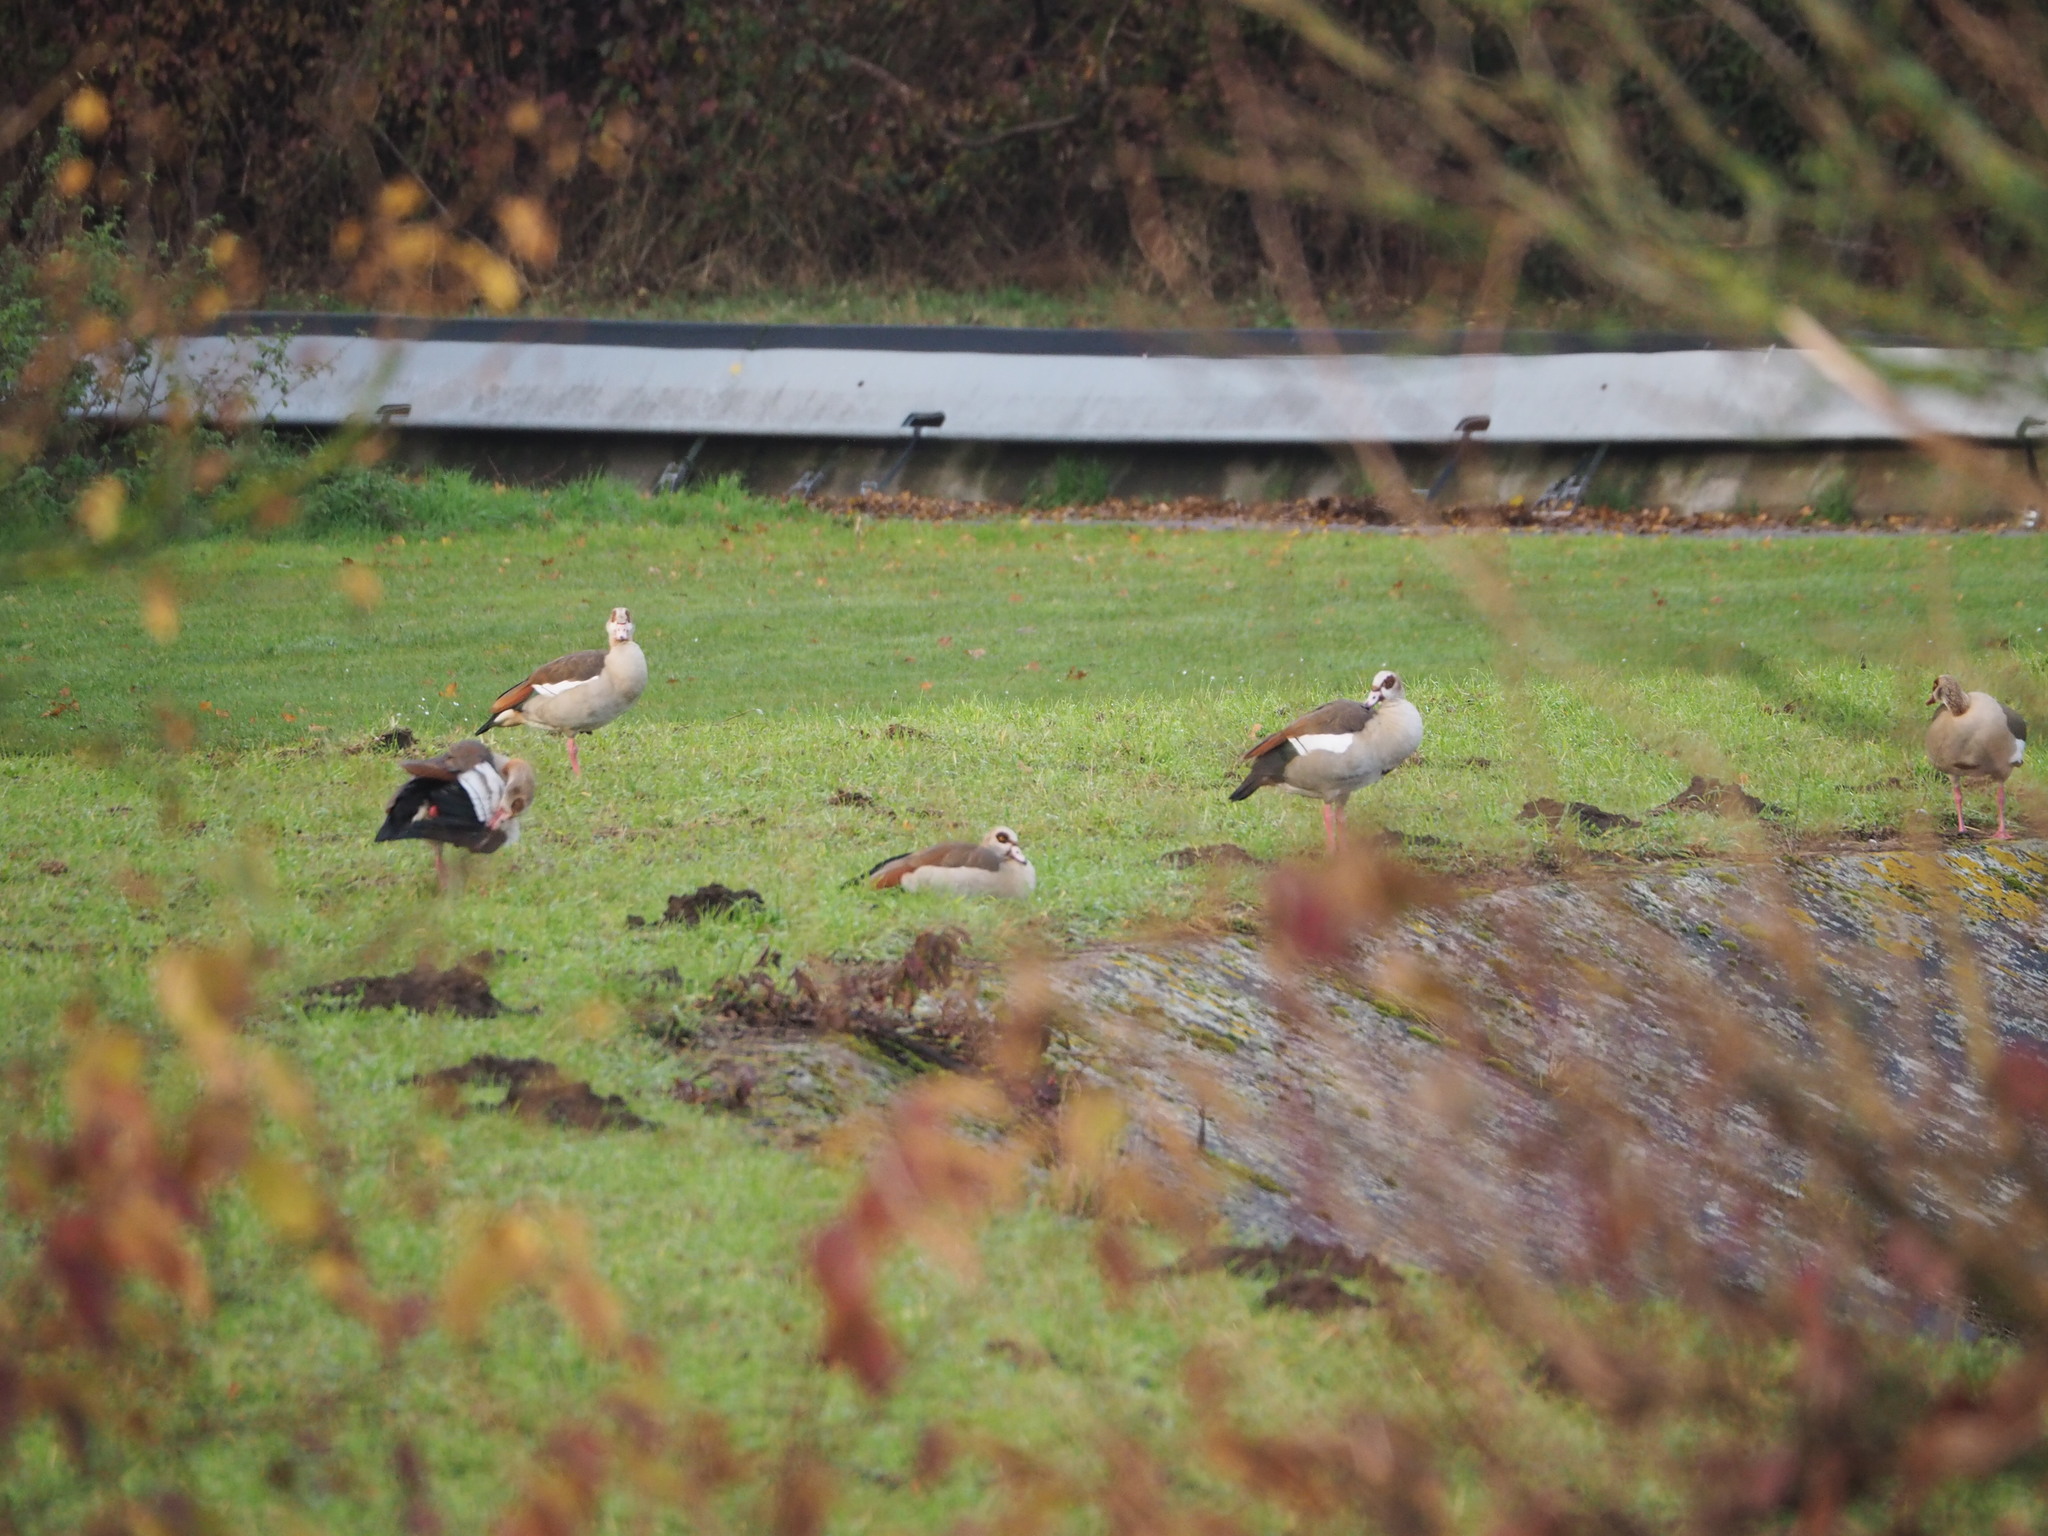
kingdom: Animalia
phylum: Chordata
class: Aves
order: Anseriformes
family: Anatidae
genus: Alopochen
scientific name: Alopochen aegyptiaca
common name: Egyptian goose
